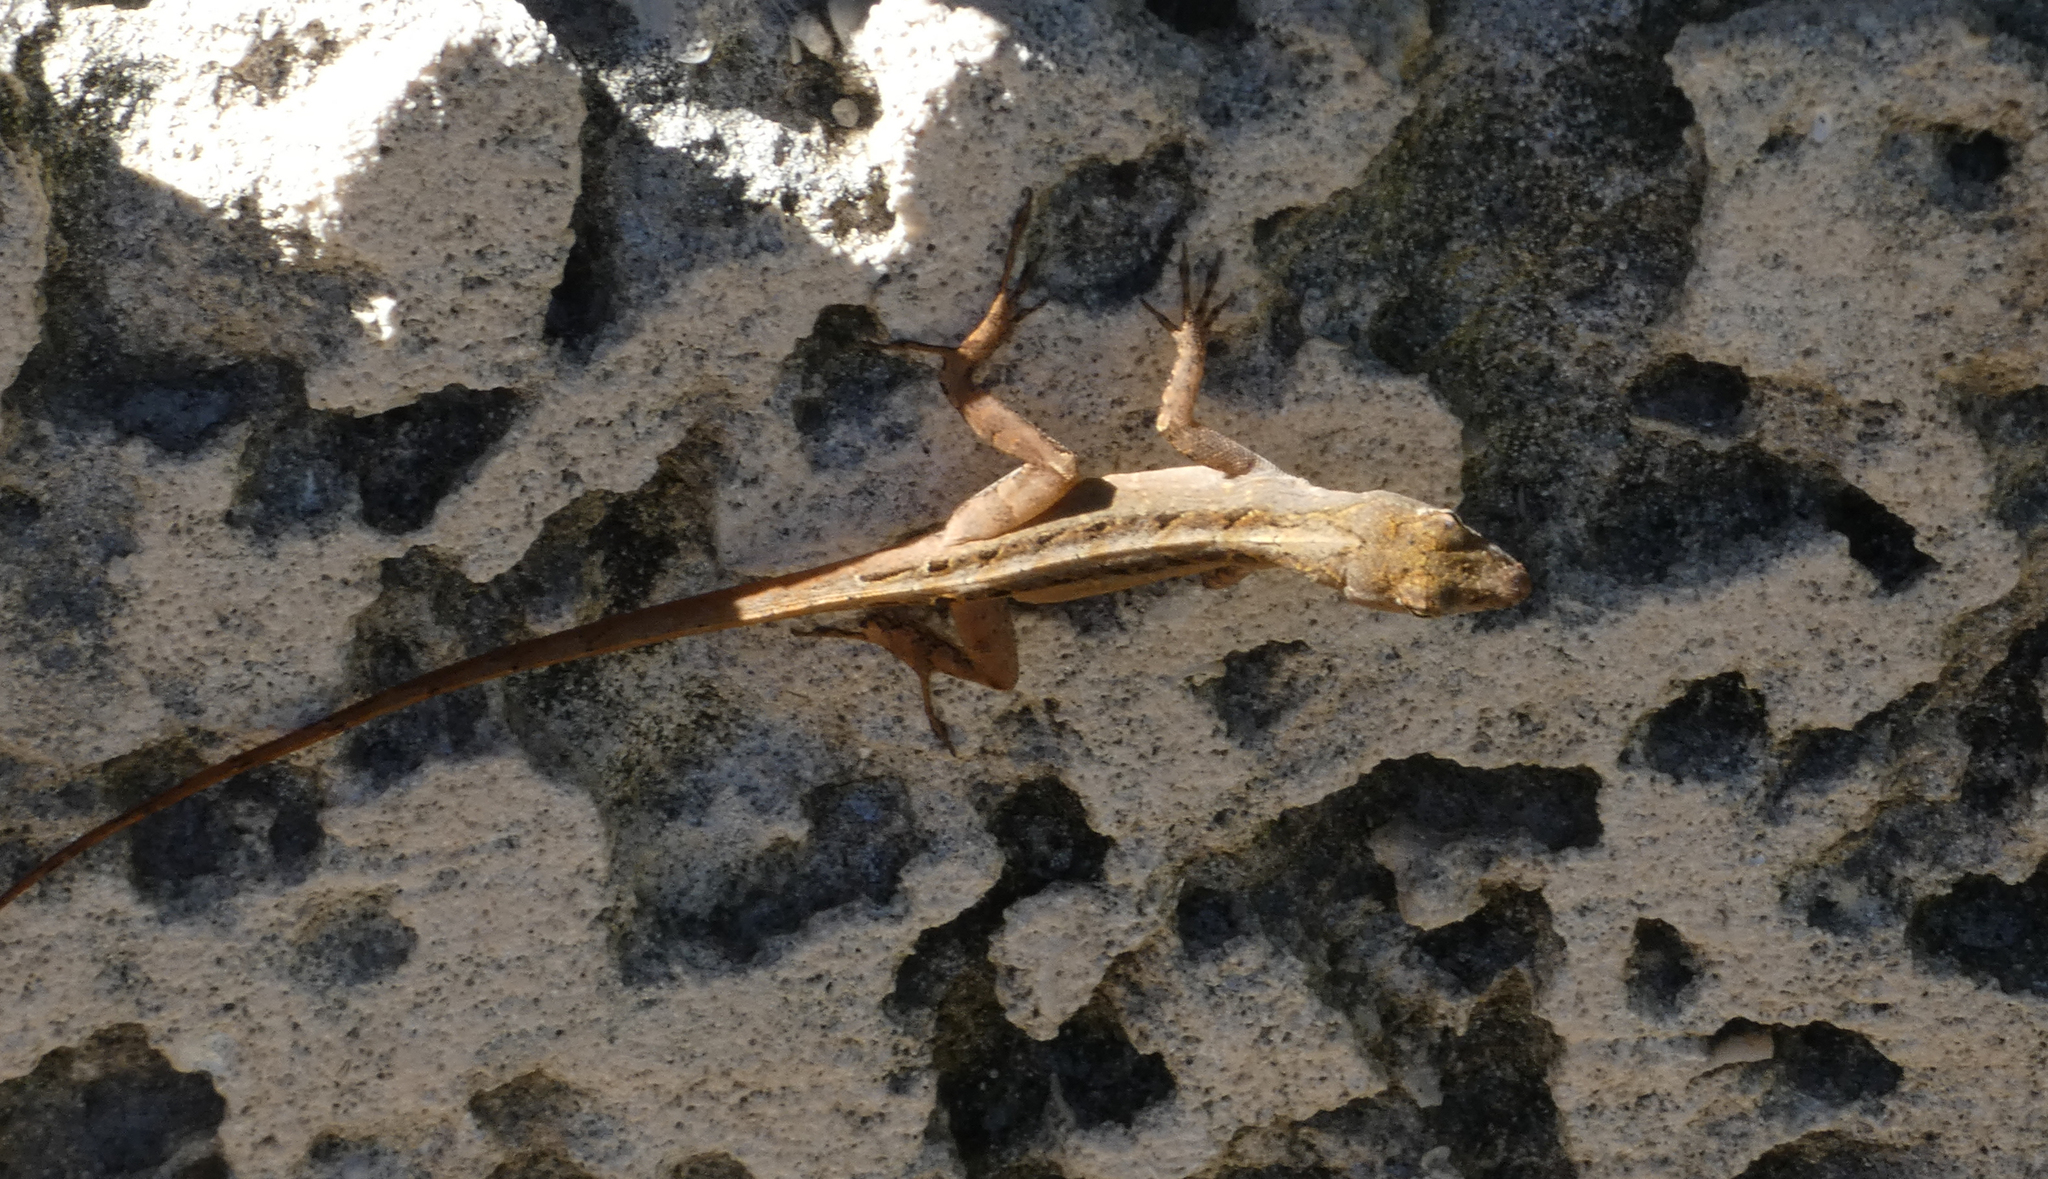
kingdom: Animalia
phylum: Chordata
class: Squamata
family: Dactyloidae
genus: Anolis
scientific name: Anolis sagrei
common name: Brown anole
